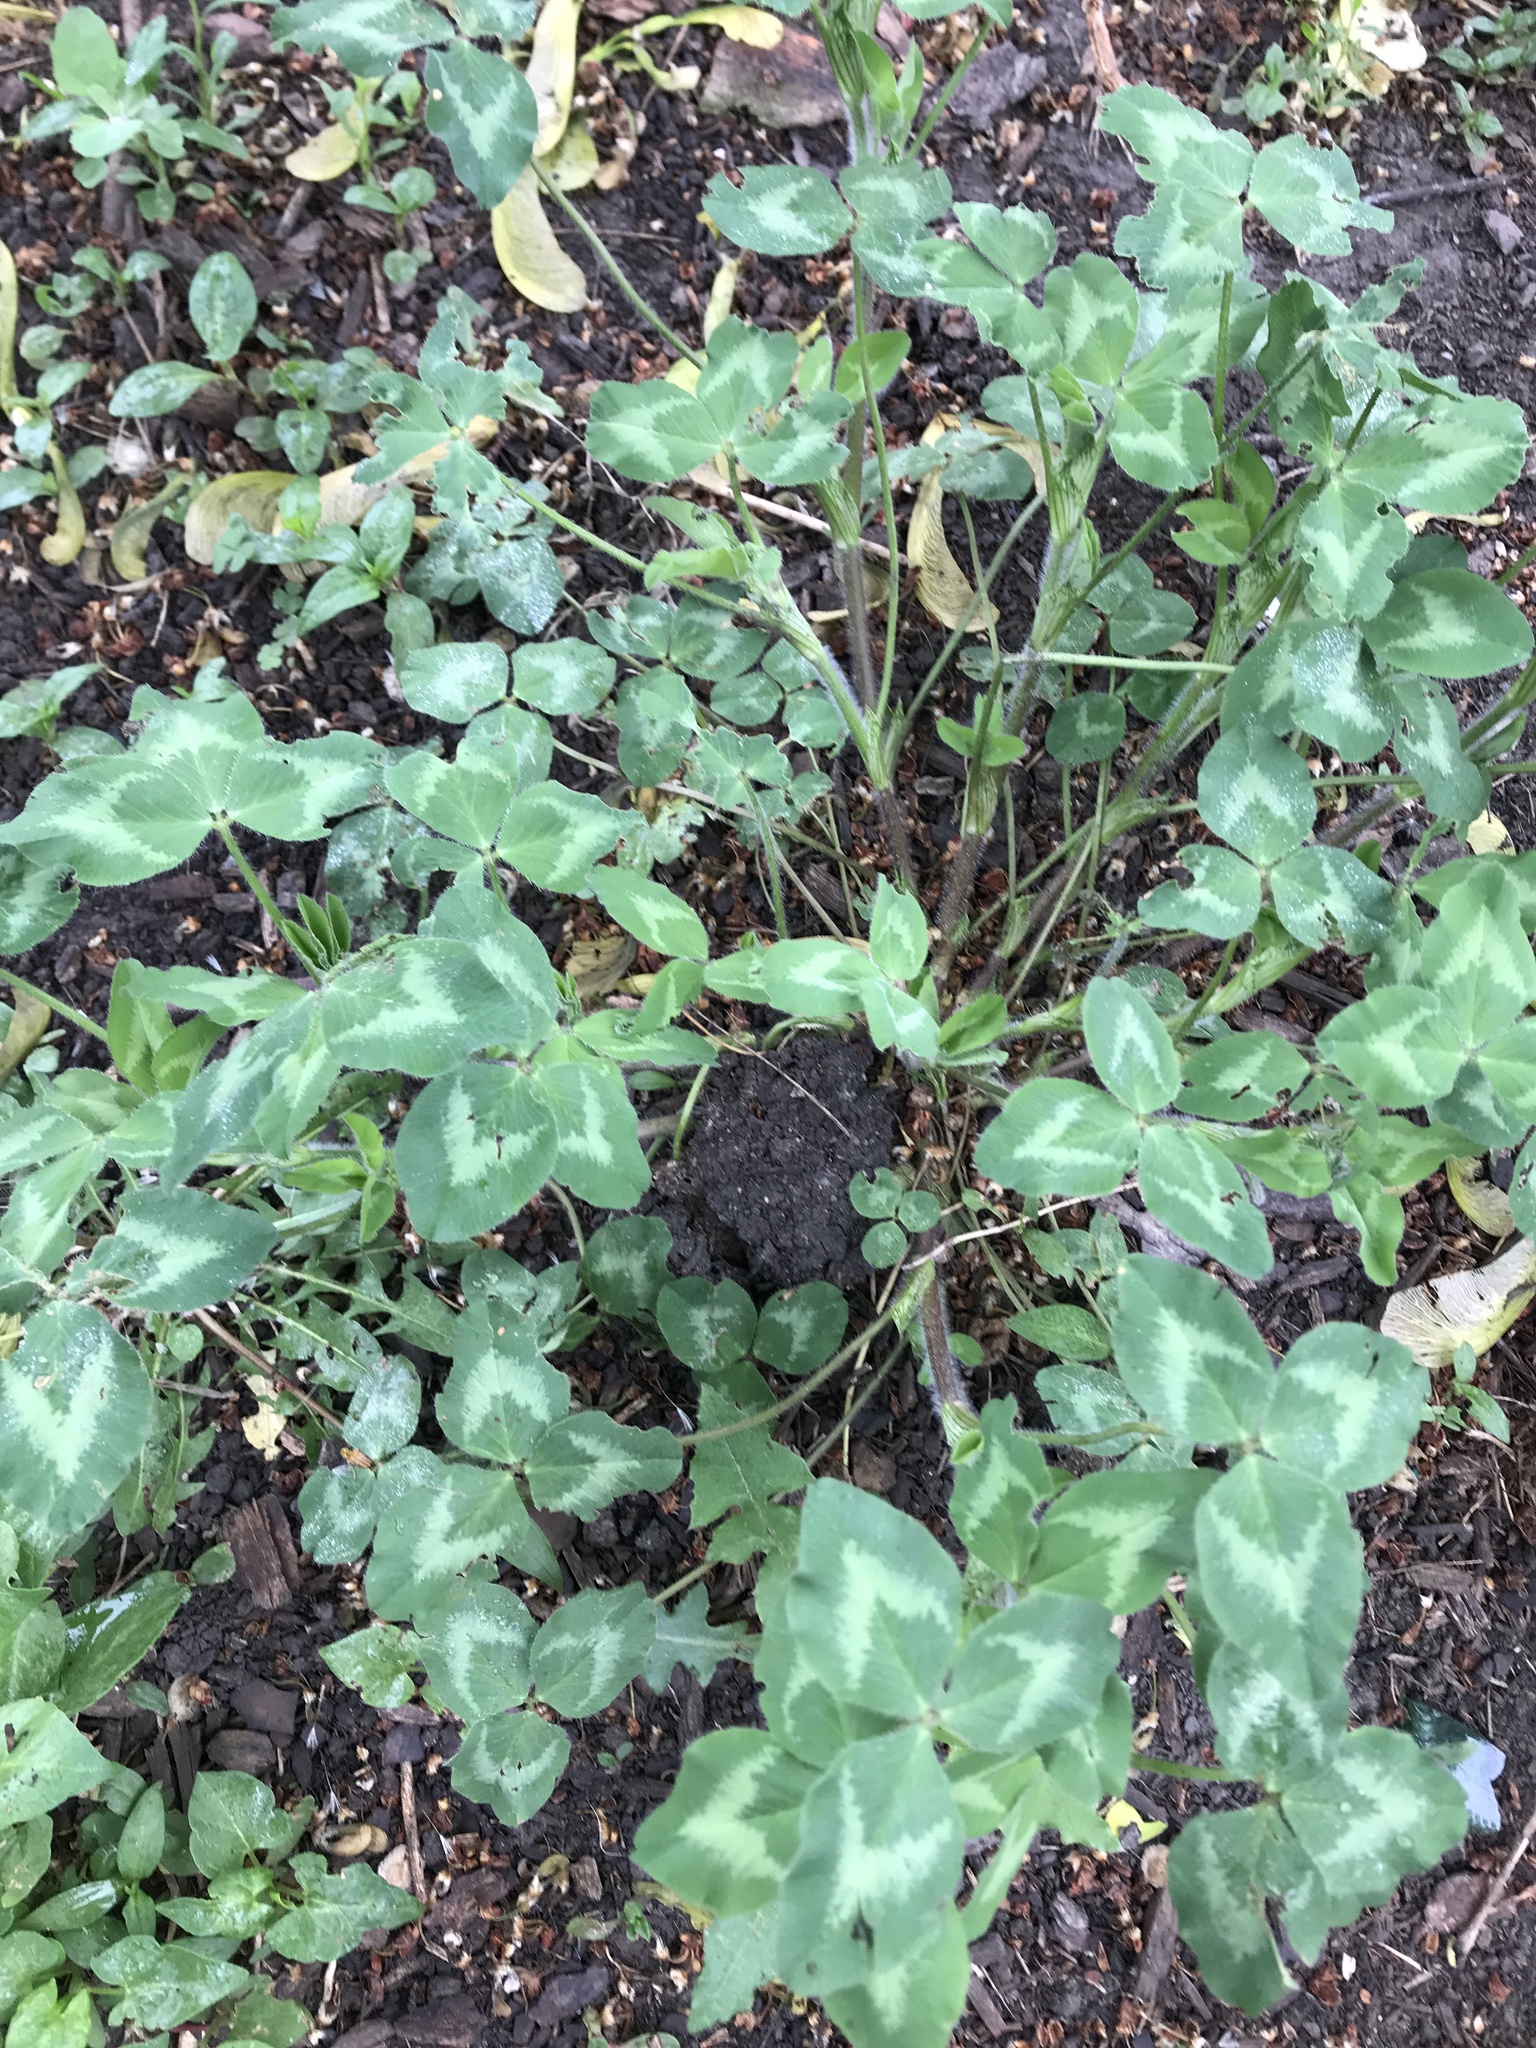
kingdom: Plantae
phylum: Tracheophyta
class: Magnoliopsida
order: Fabales
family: Fabaceae
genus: Trifolium
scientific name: Trifolium pratense
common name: Red clover
